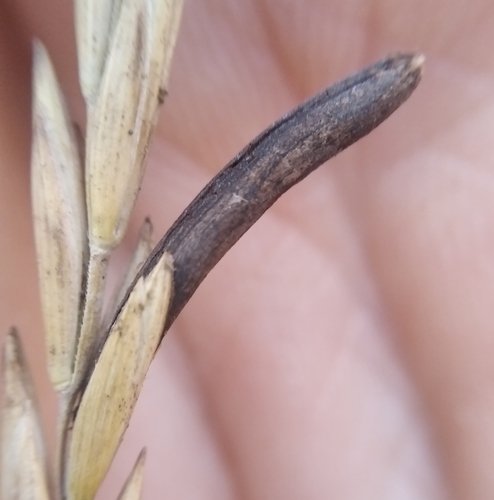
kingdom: Fungi
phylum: Ascomycota
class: Sordariomycetes
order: Hypocreales
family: Clavicipitaceae
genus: Claviceps
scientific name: Claviceps purpurea
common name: Rye ergot
